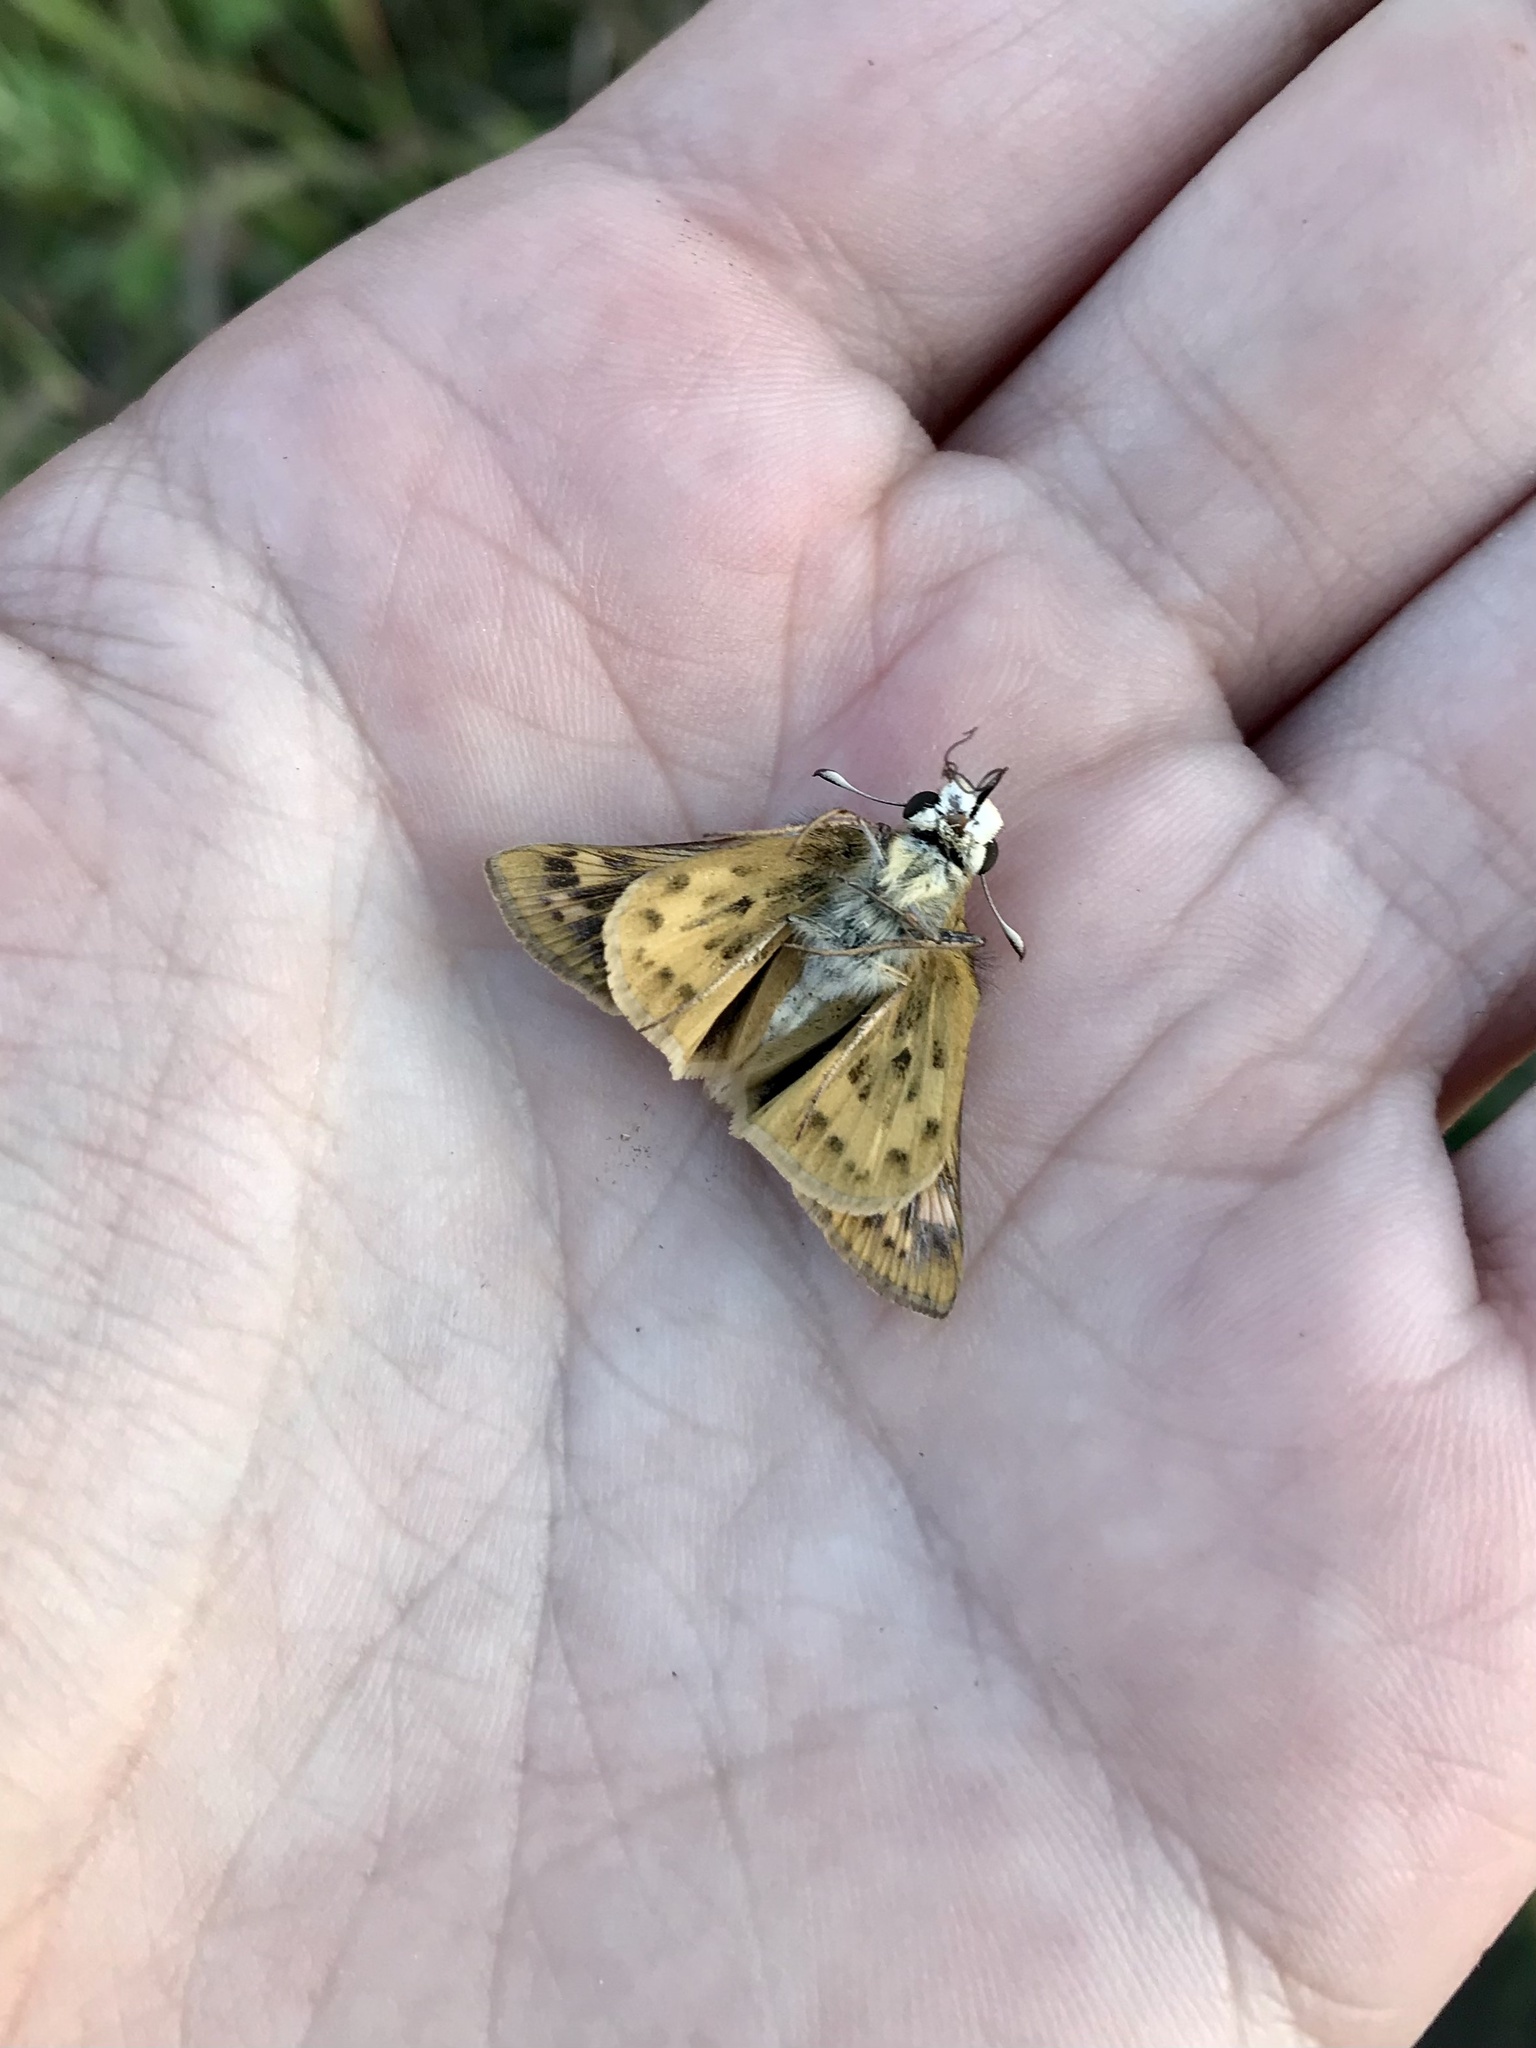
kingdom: Animalia
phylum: Arthropoda
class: Insecta
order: Lepidoptera
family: Hesperiidae
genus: Hylephila
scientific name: Hylephila phyleus
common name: Fiery skipper
